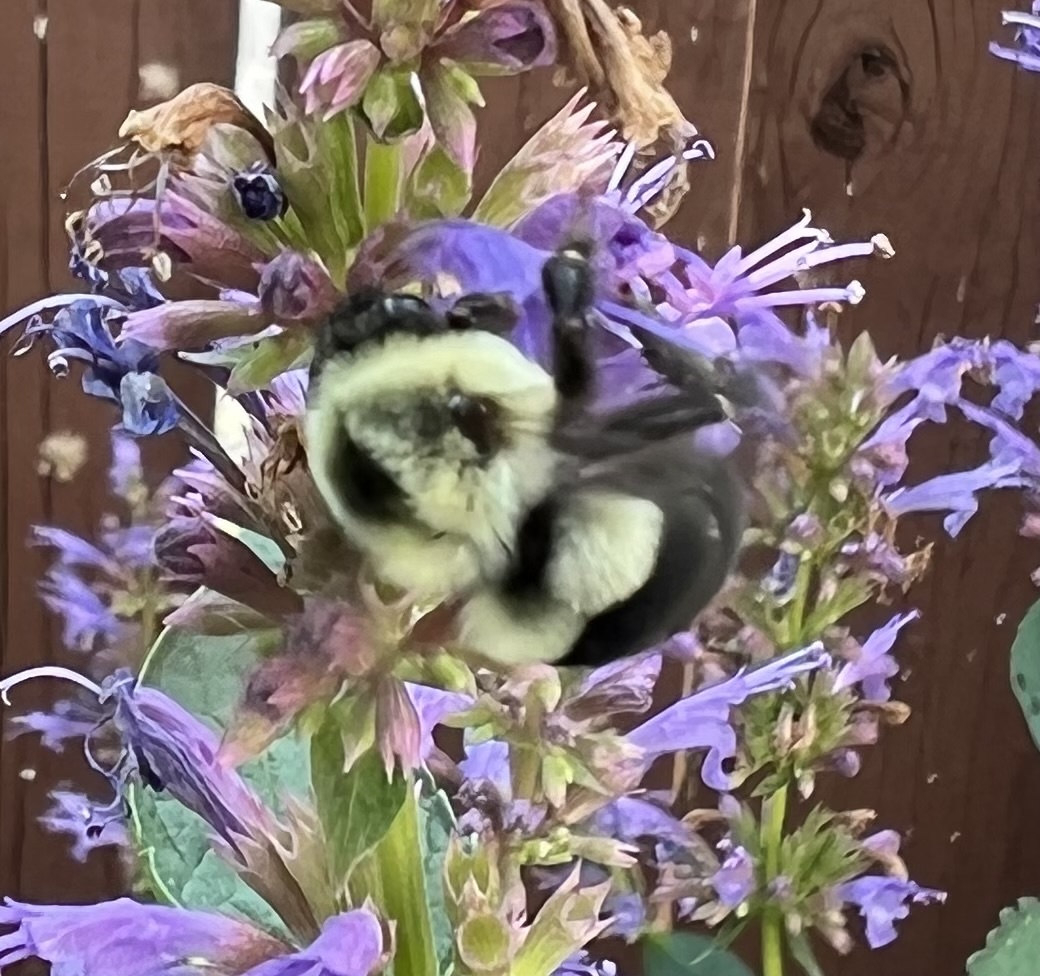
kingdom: Animalia
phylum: Arthropoda
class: Insecta
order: Hymenoptera
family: Apidae
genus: Bombus
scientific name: Bombus impatiens
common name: Common eastern bumble bee
